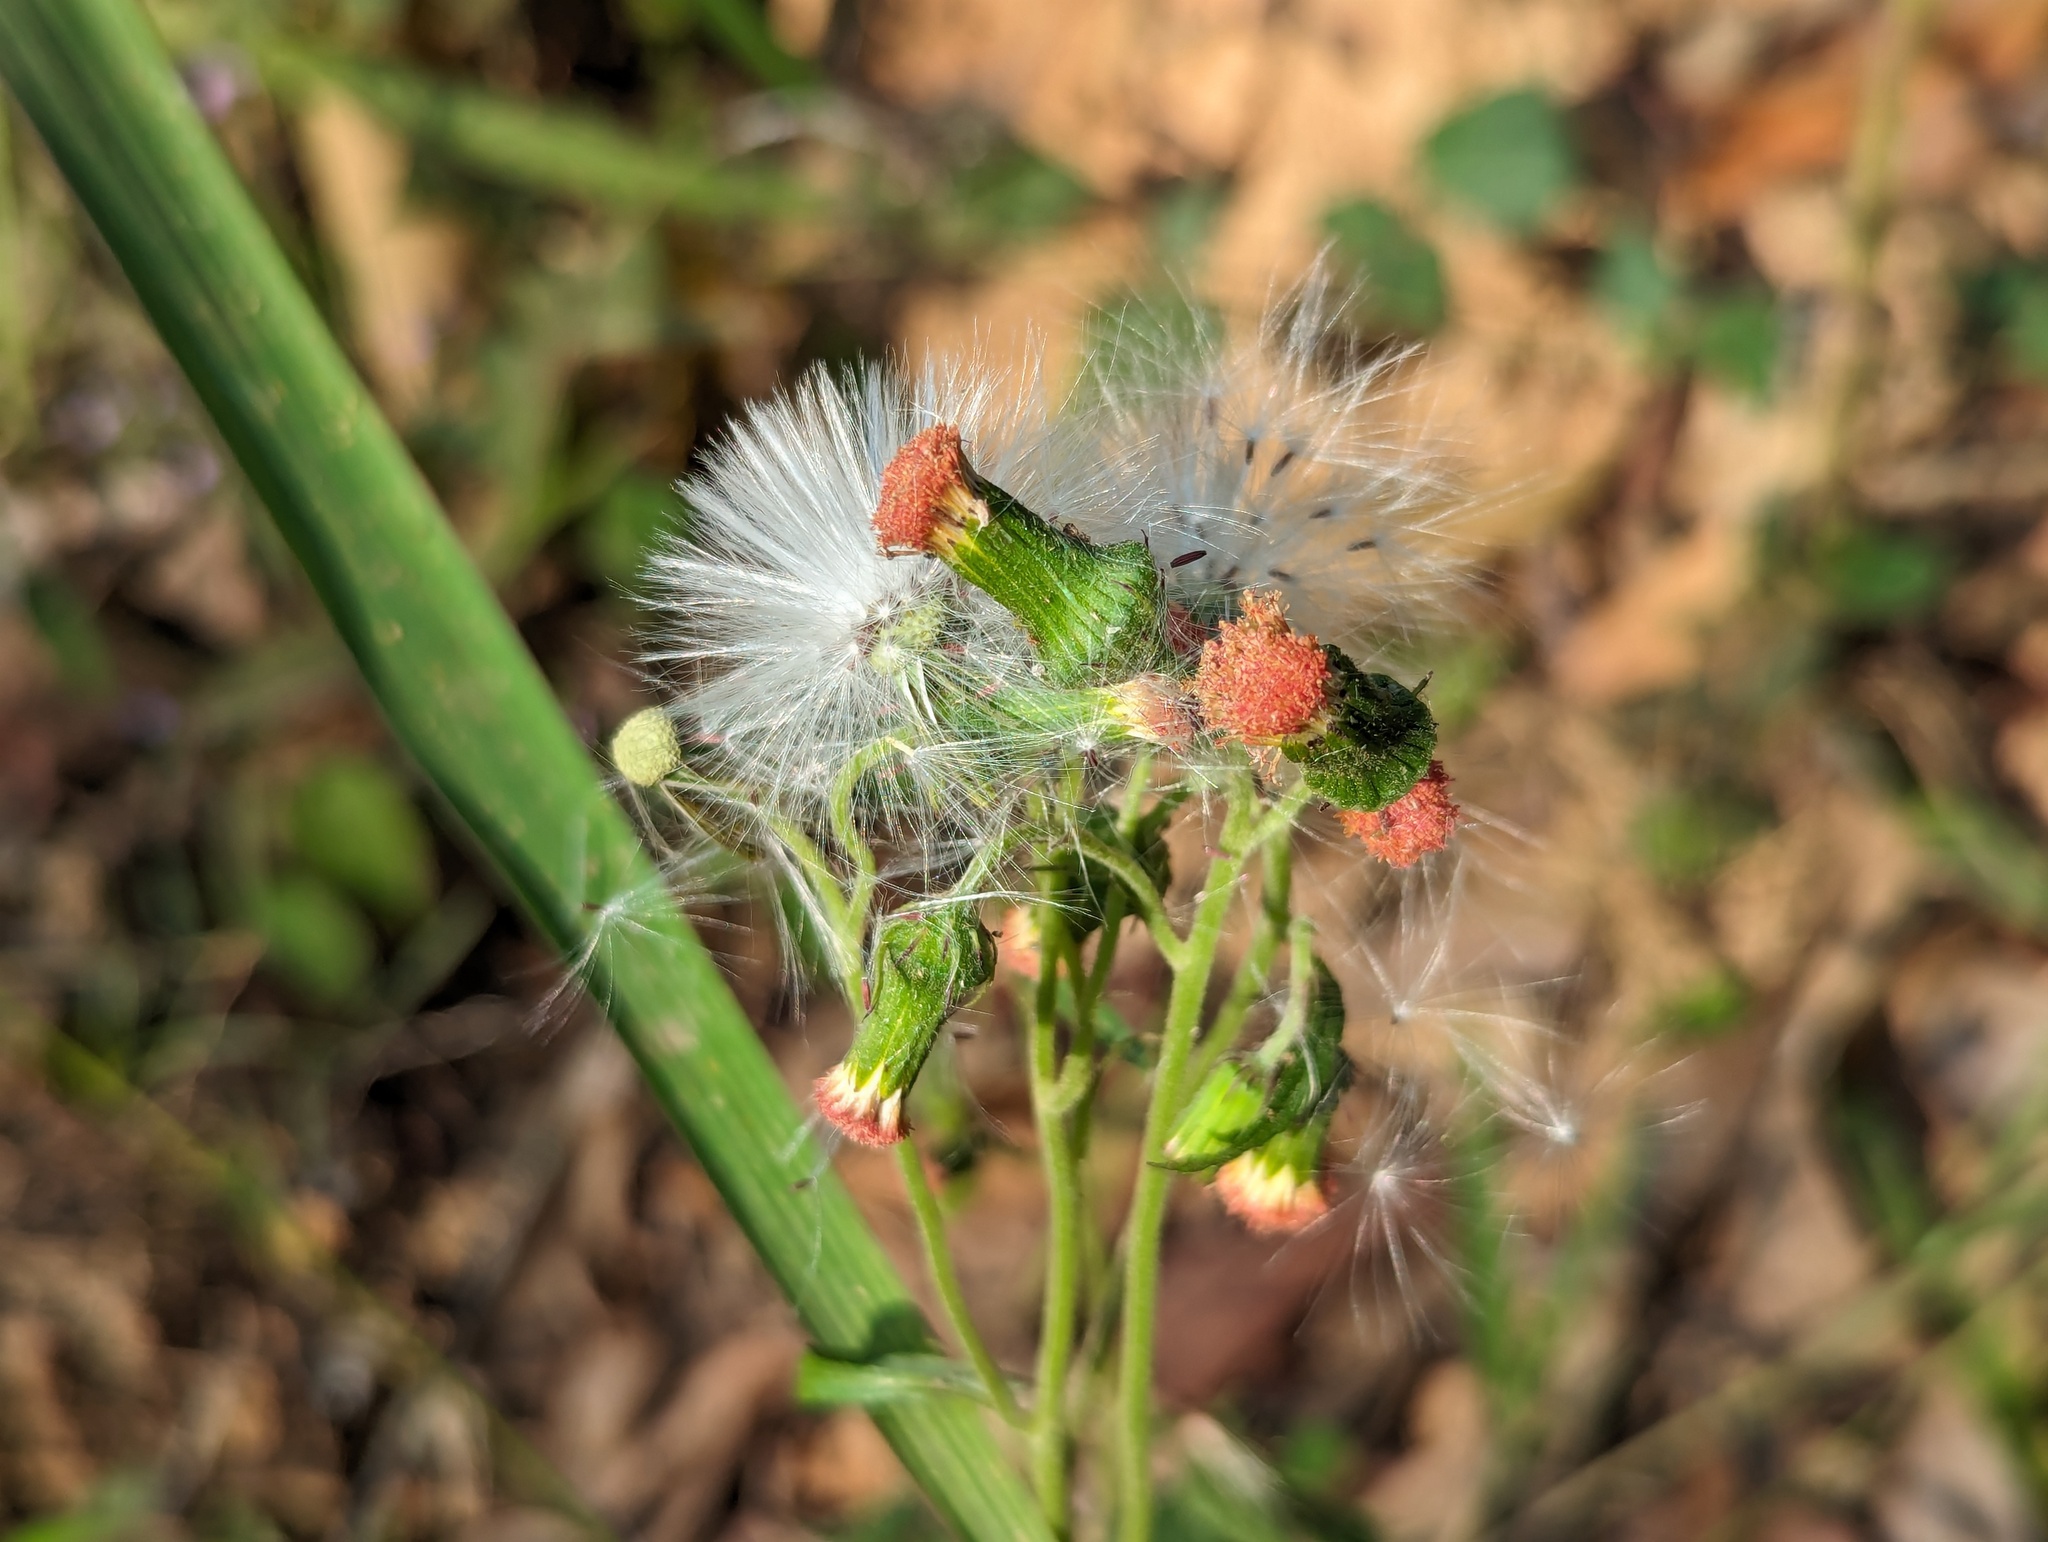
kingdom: Plantae
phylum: Tracheophyta
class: Magnoliopsida
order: Asterales
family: Asteraceae
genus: Crassocephalum
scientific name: Crassocephalum crepidioides
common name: Redflower ragleaf
